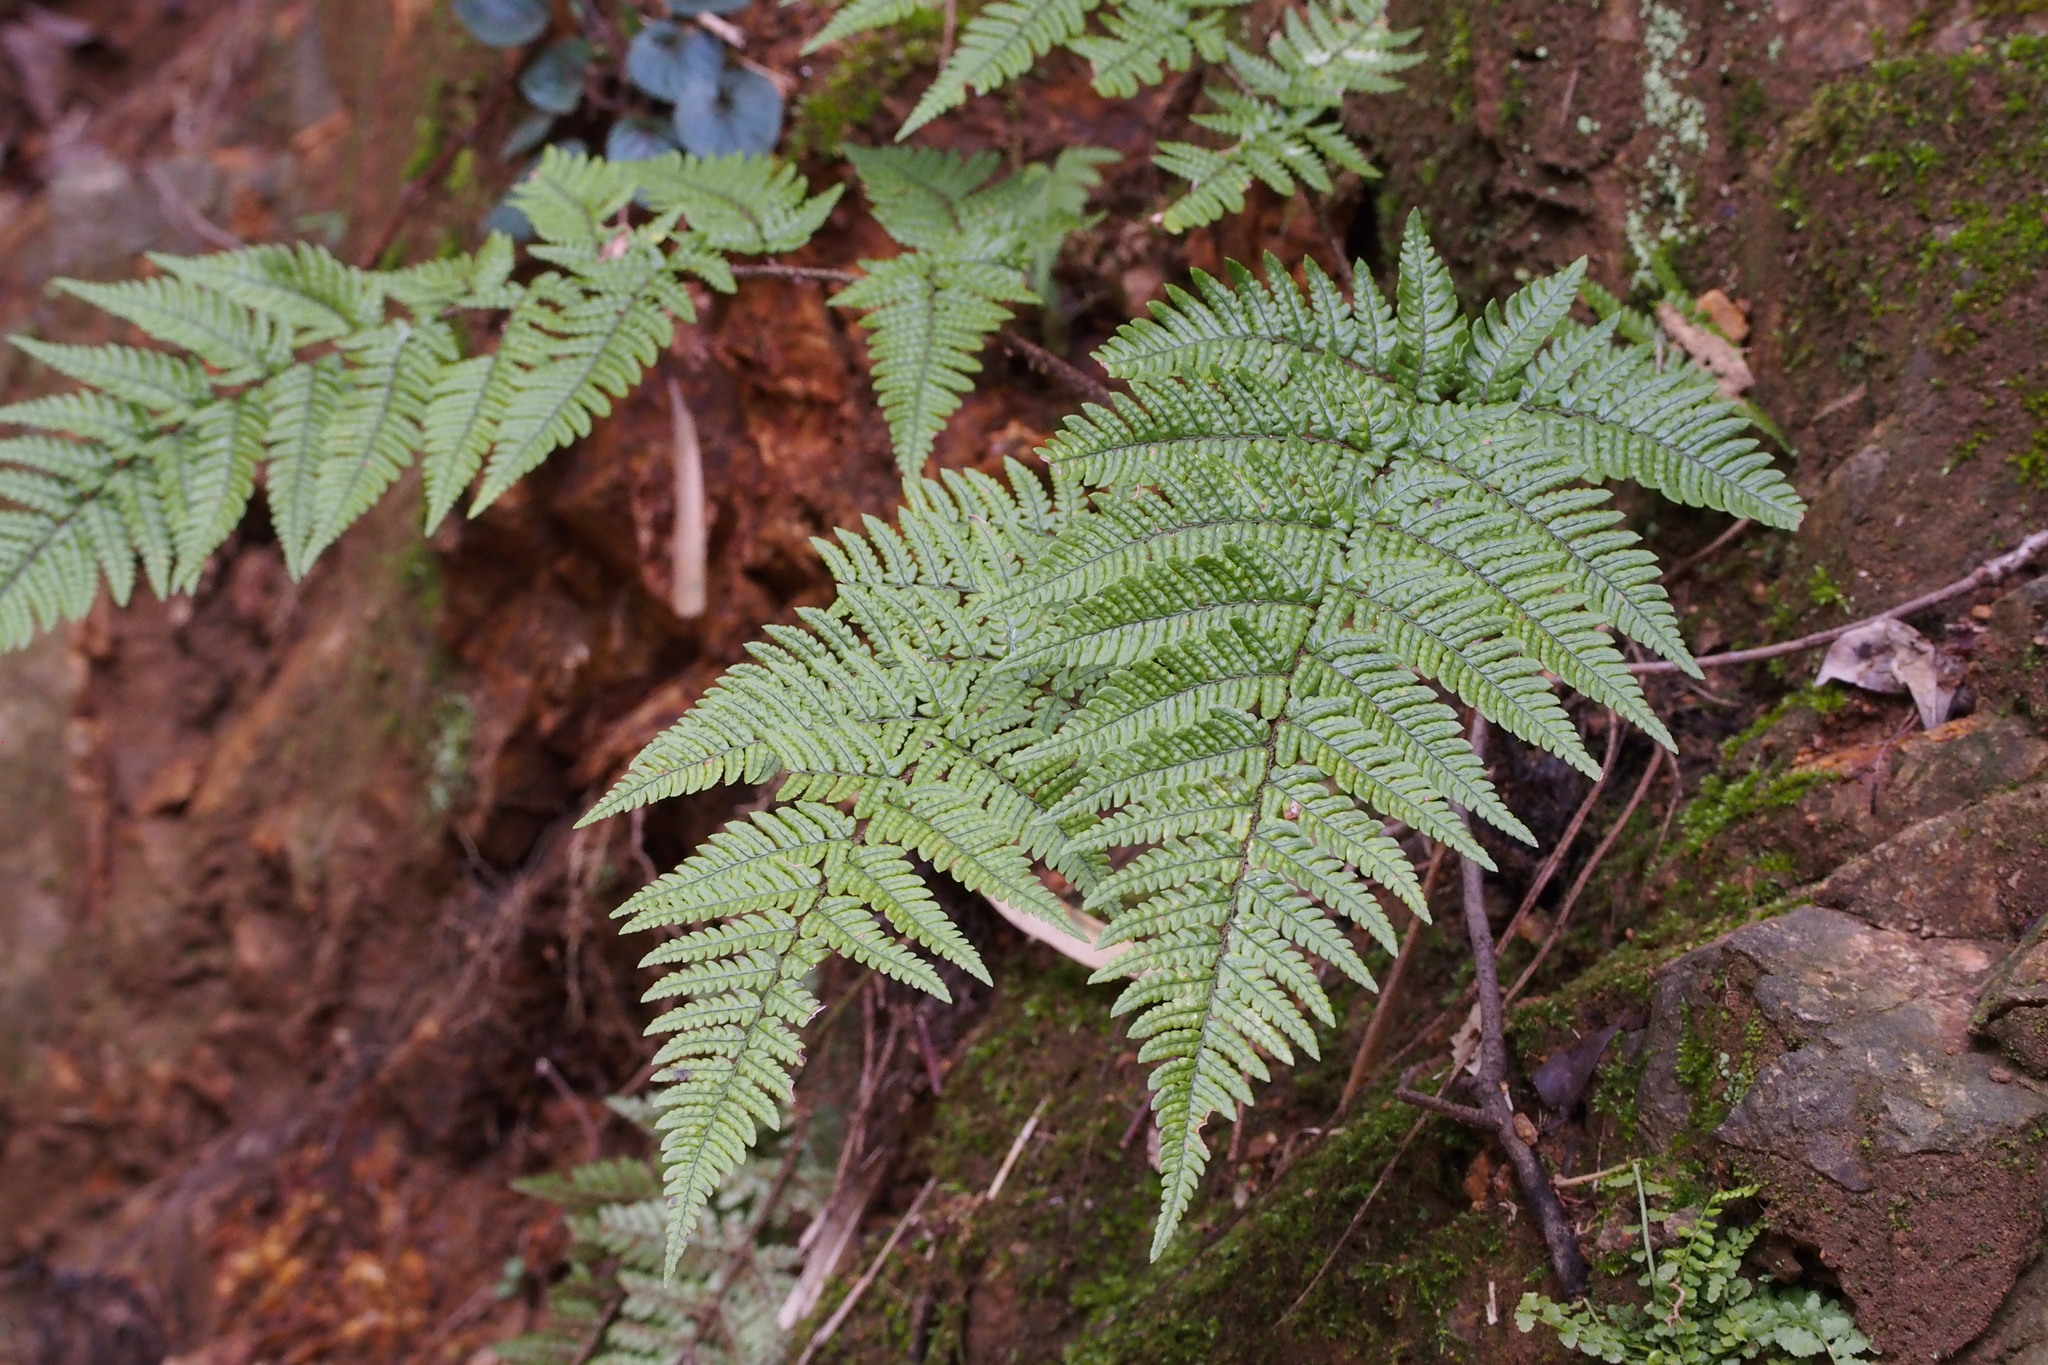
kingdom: Plantae
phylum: Tracheophyta
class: Polypodiopsida
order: Polypodiales
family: Dryopteridaceae
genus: Dryopteris
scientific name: Dryopteris bissetiana
